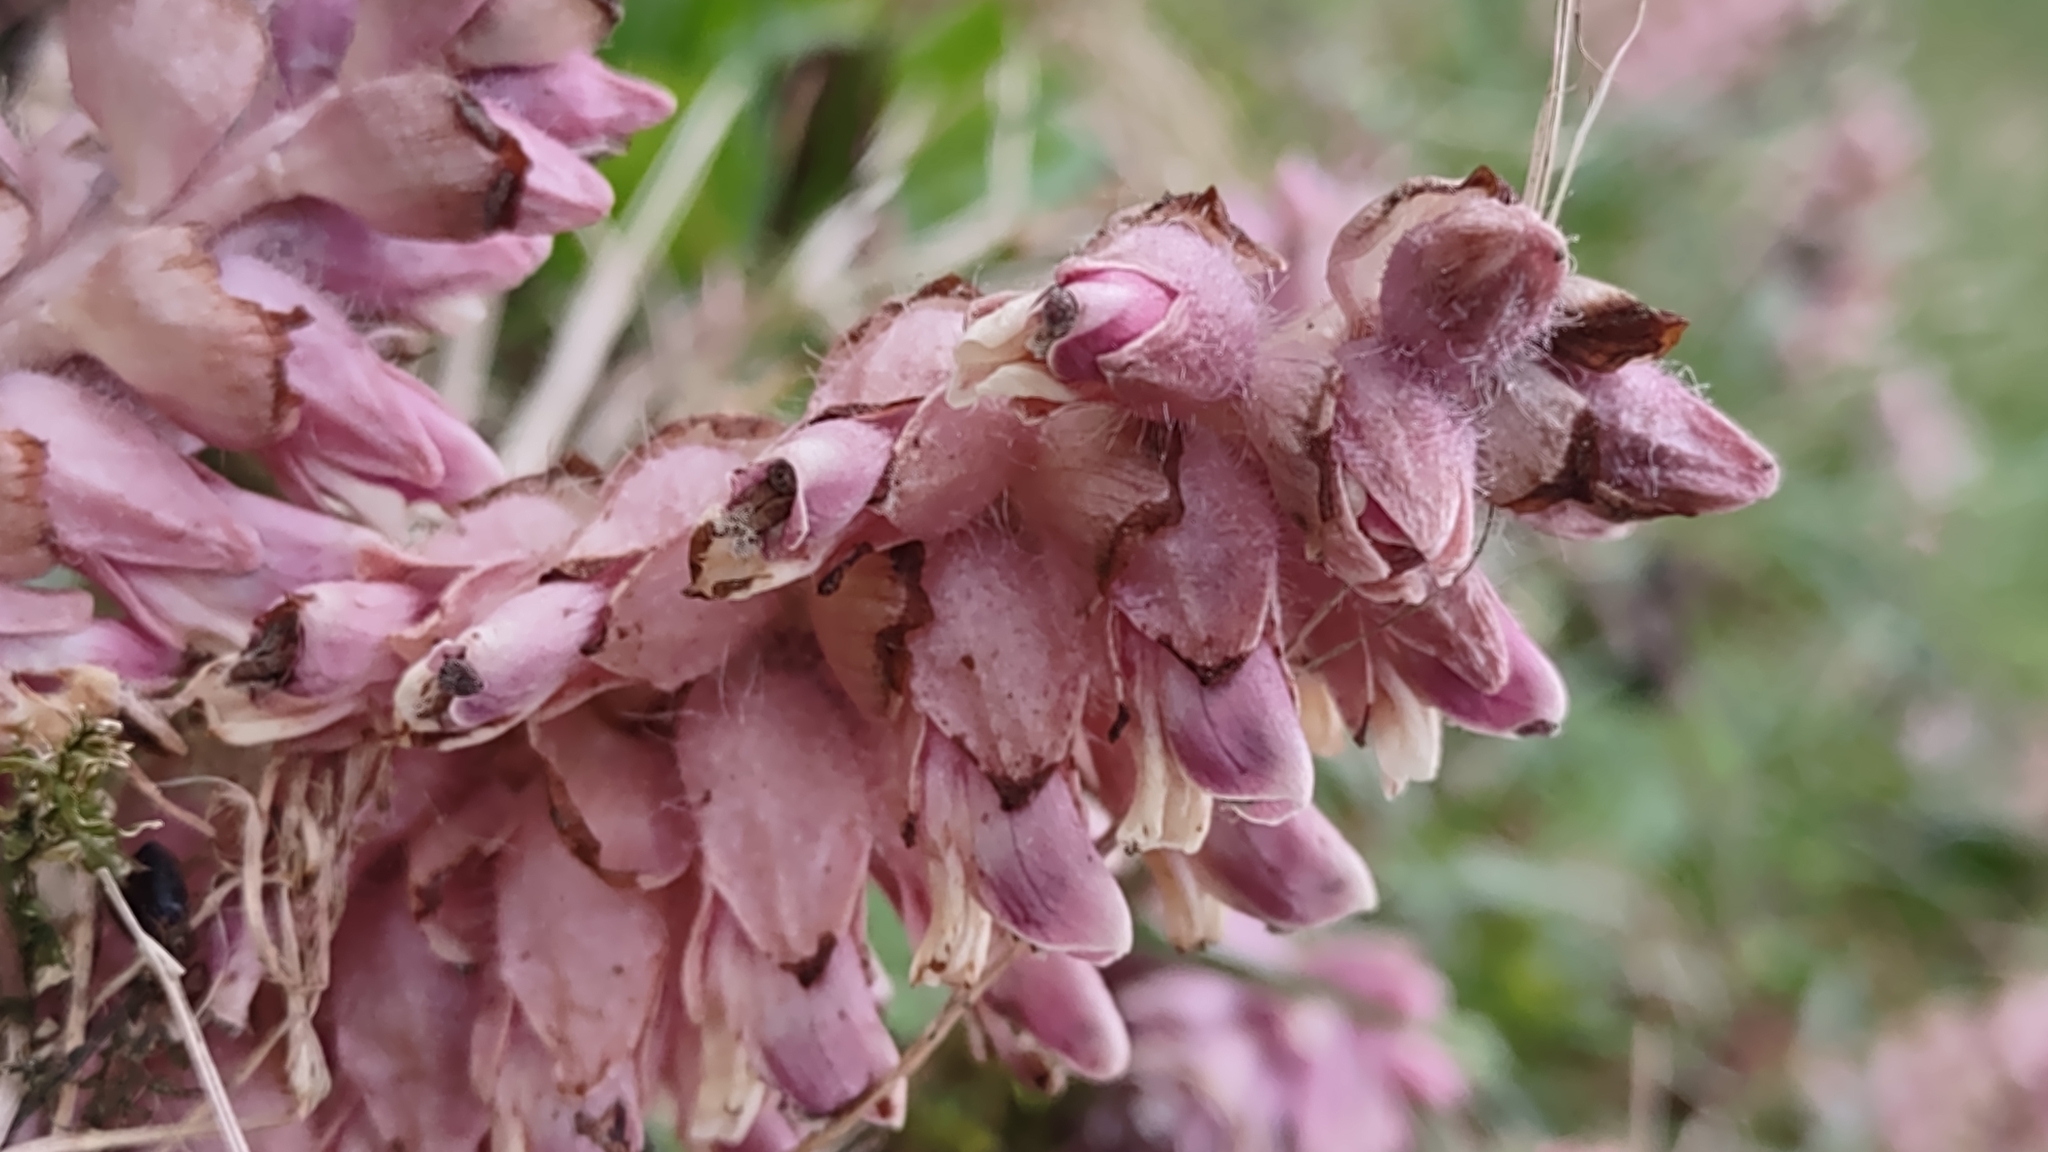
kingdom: Plantae
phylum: Tracheophyta
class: Magnoliopsida
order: Lamiales
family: Orobanchaceae
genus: Lathraea
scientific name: Lathraea squamaria
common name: Toothwort
